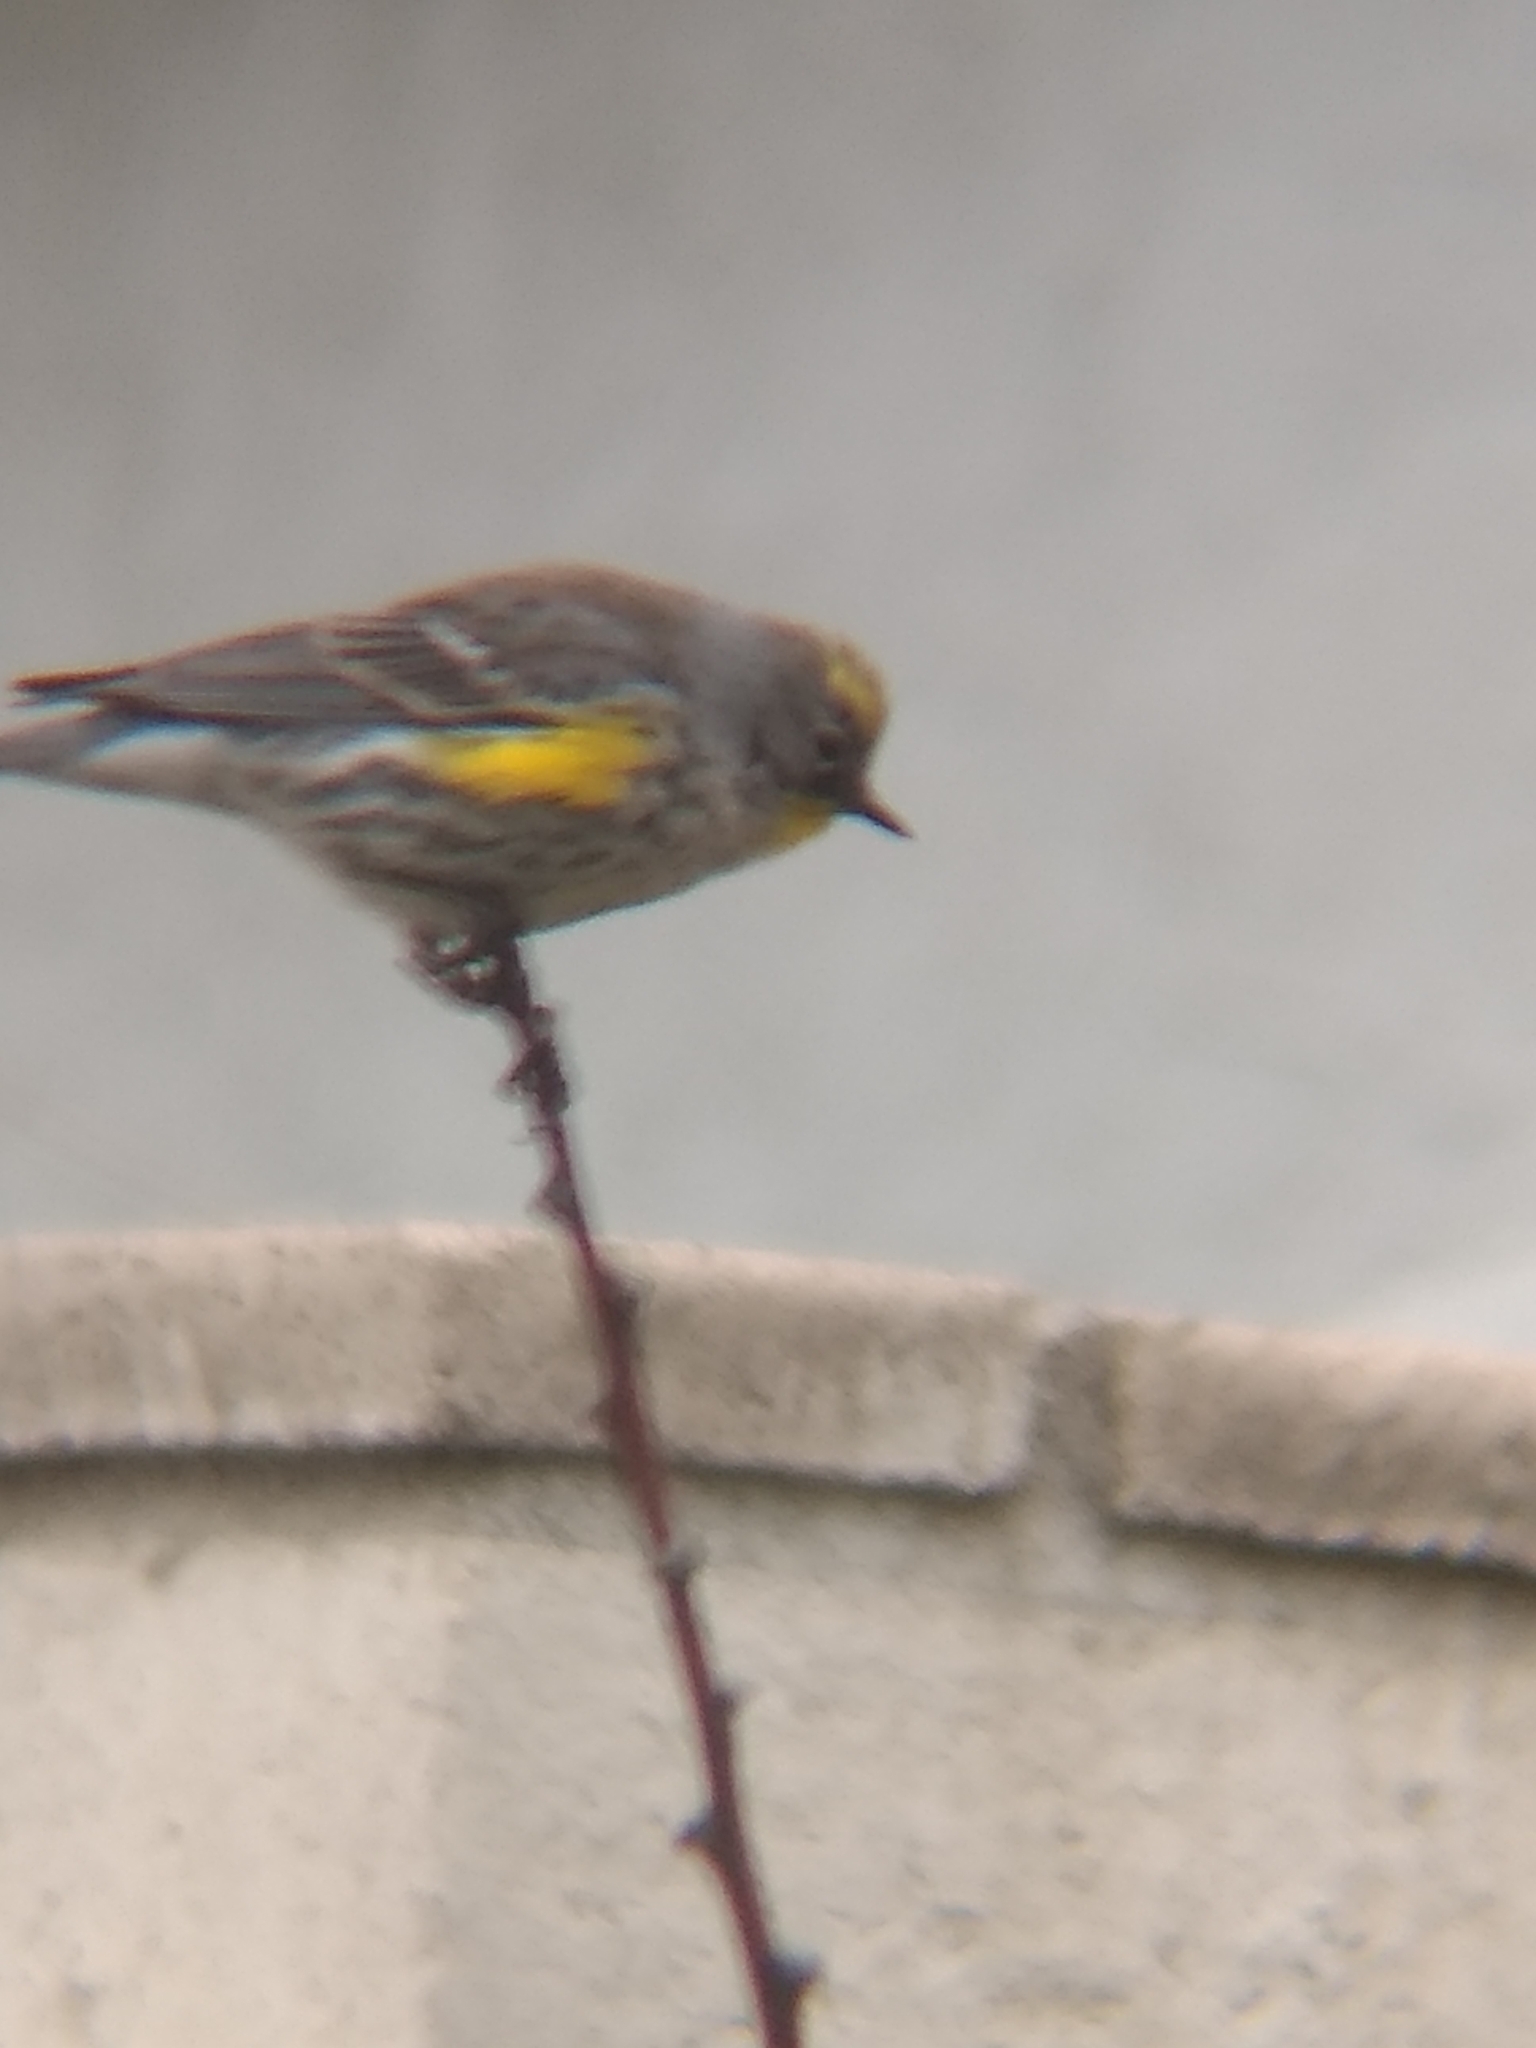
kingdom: Animalia
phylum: Chordata
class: Aves
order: Passeriformes
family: Parulidae
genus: Setophaga
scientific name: Setophaga coronata
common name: Myrtle warbler
